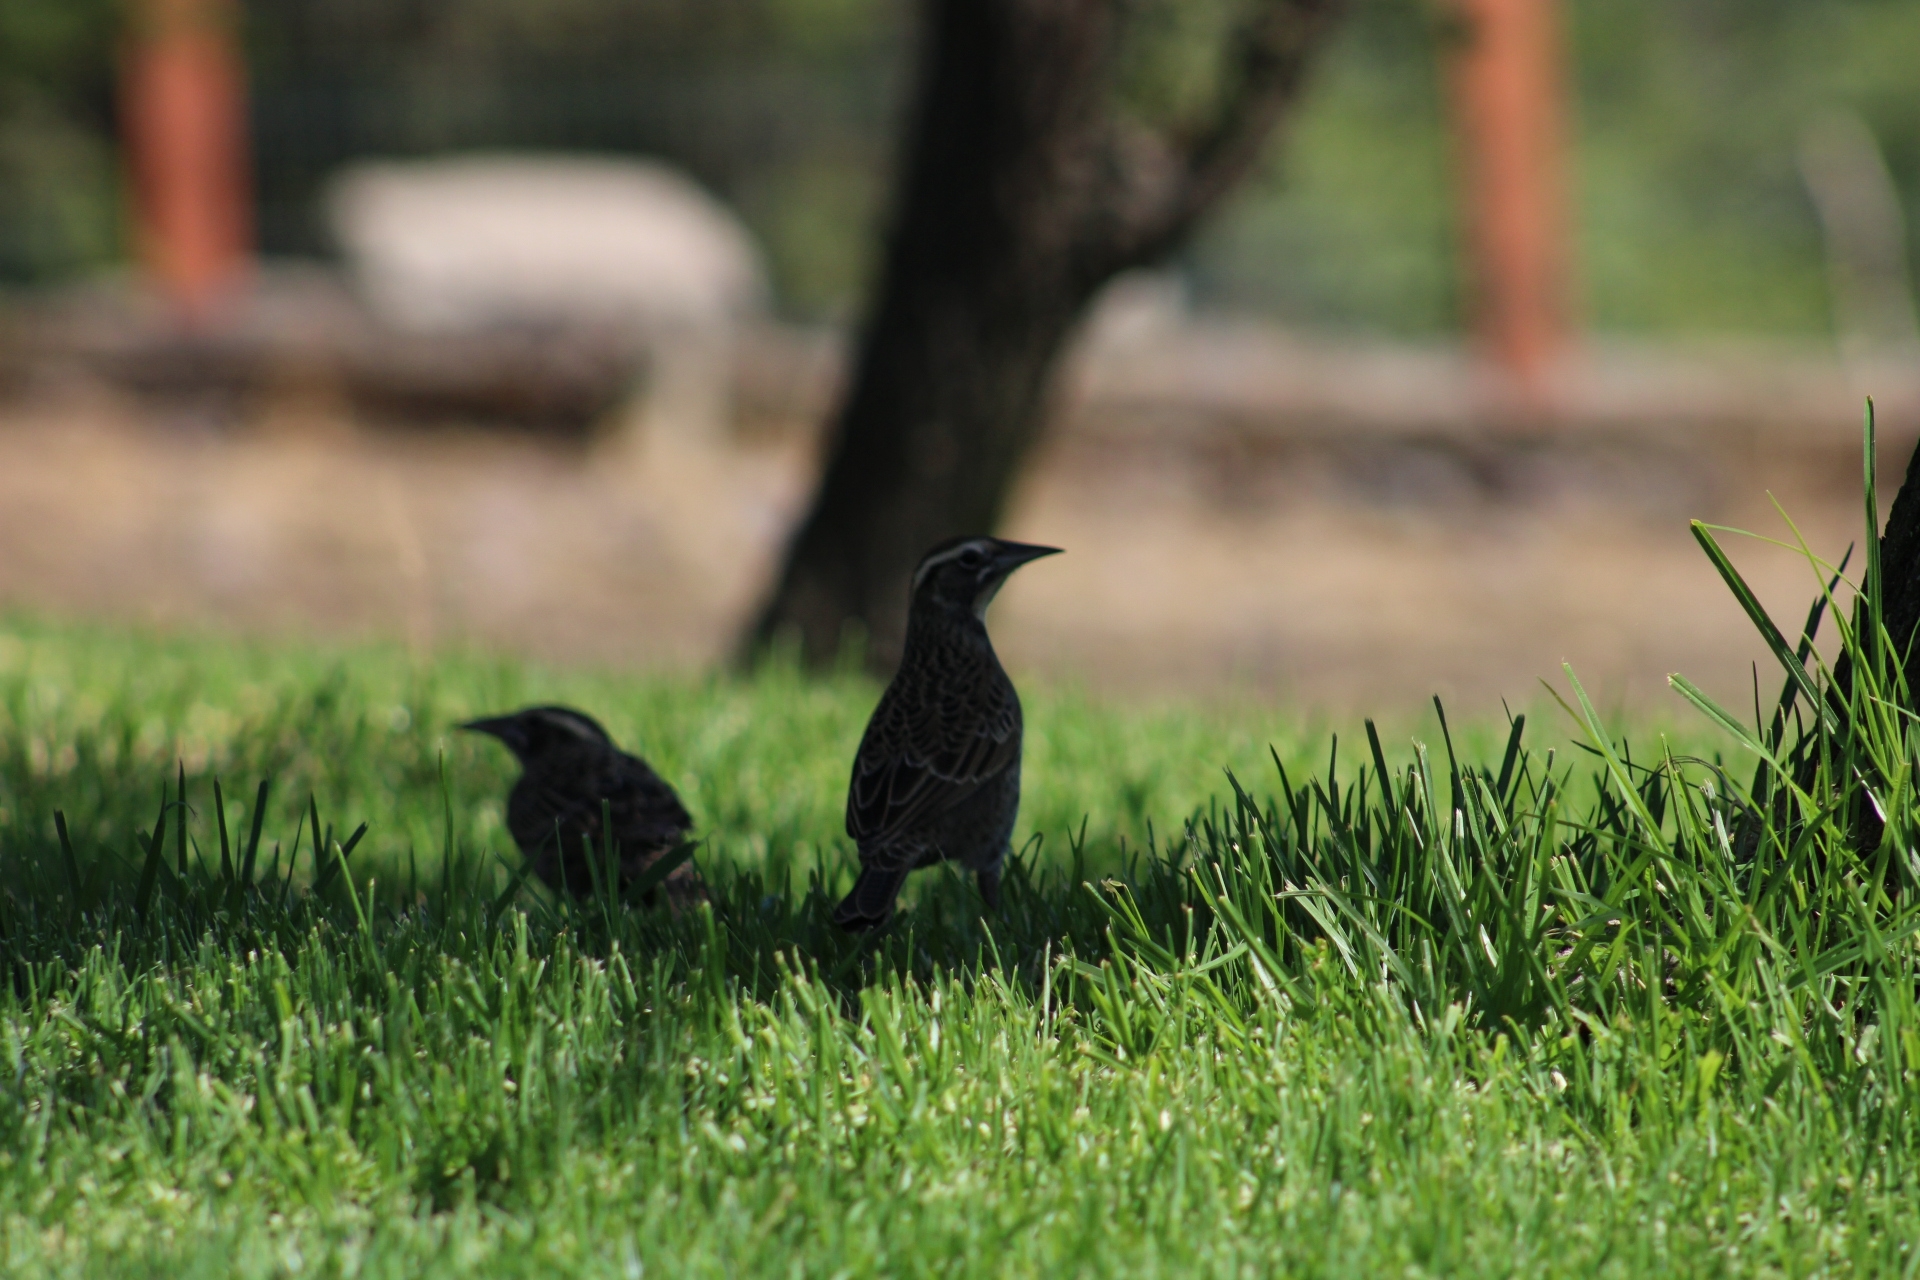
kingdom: Animalia
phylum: Chordata
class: Aves
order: Passeriformes
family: Icteridae
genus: Sturnella
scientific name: Sturnella loyca
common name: Long-tailed meadowlark
